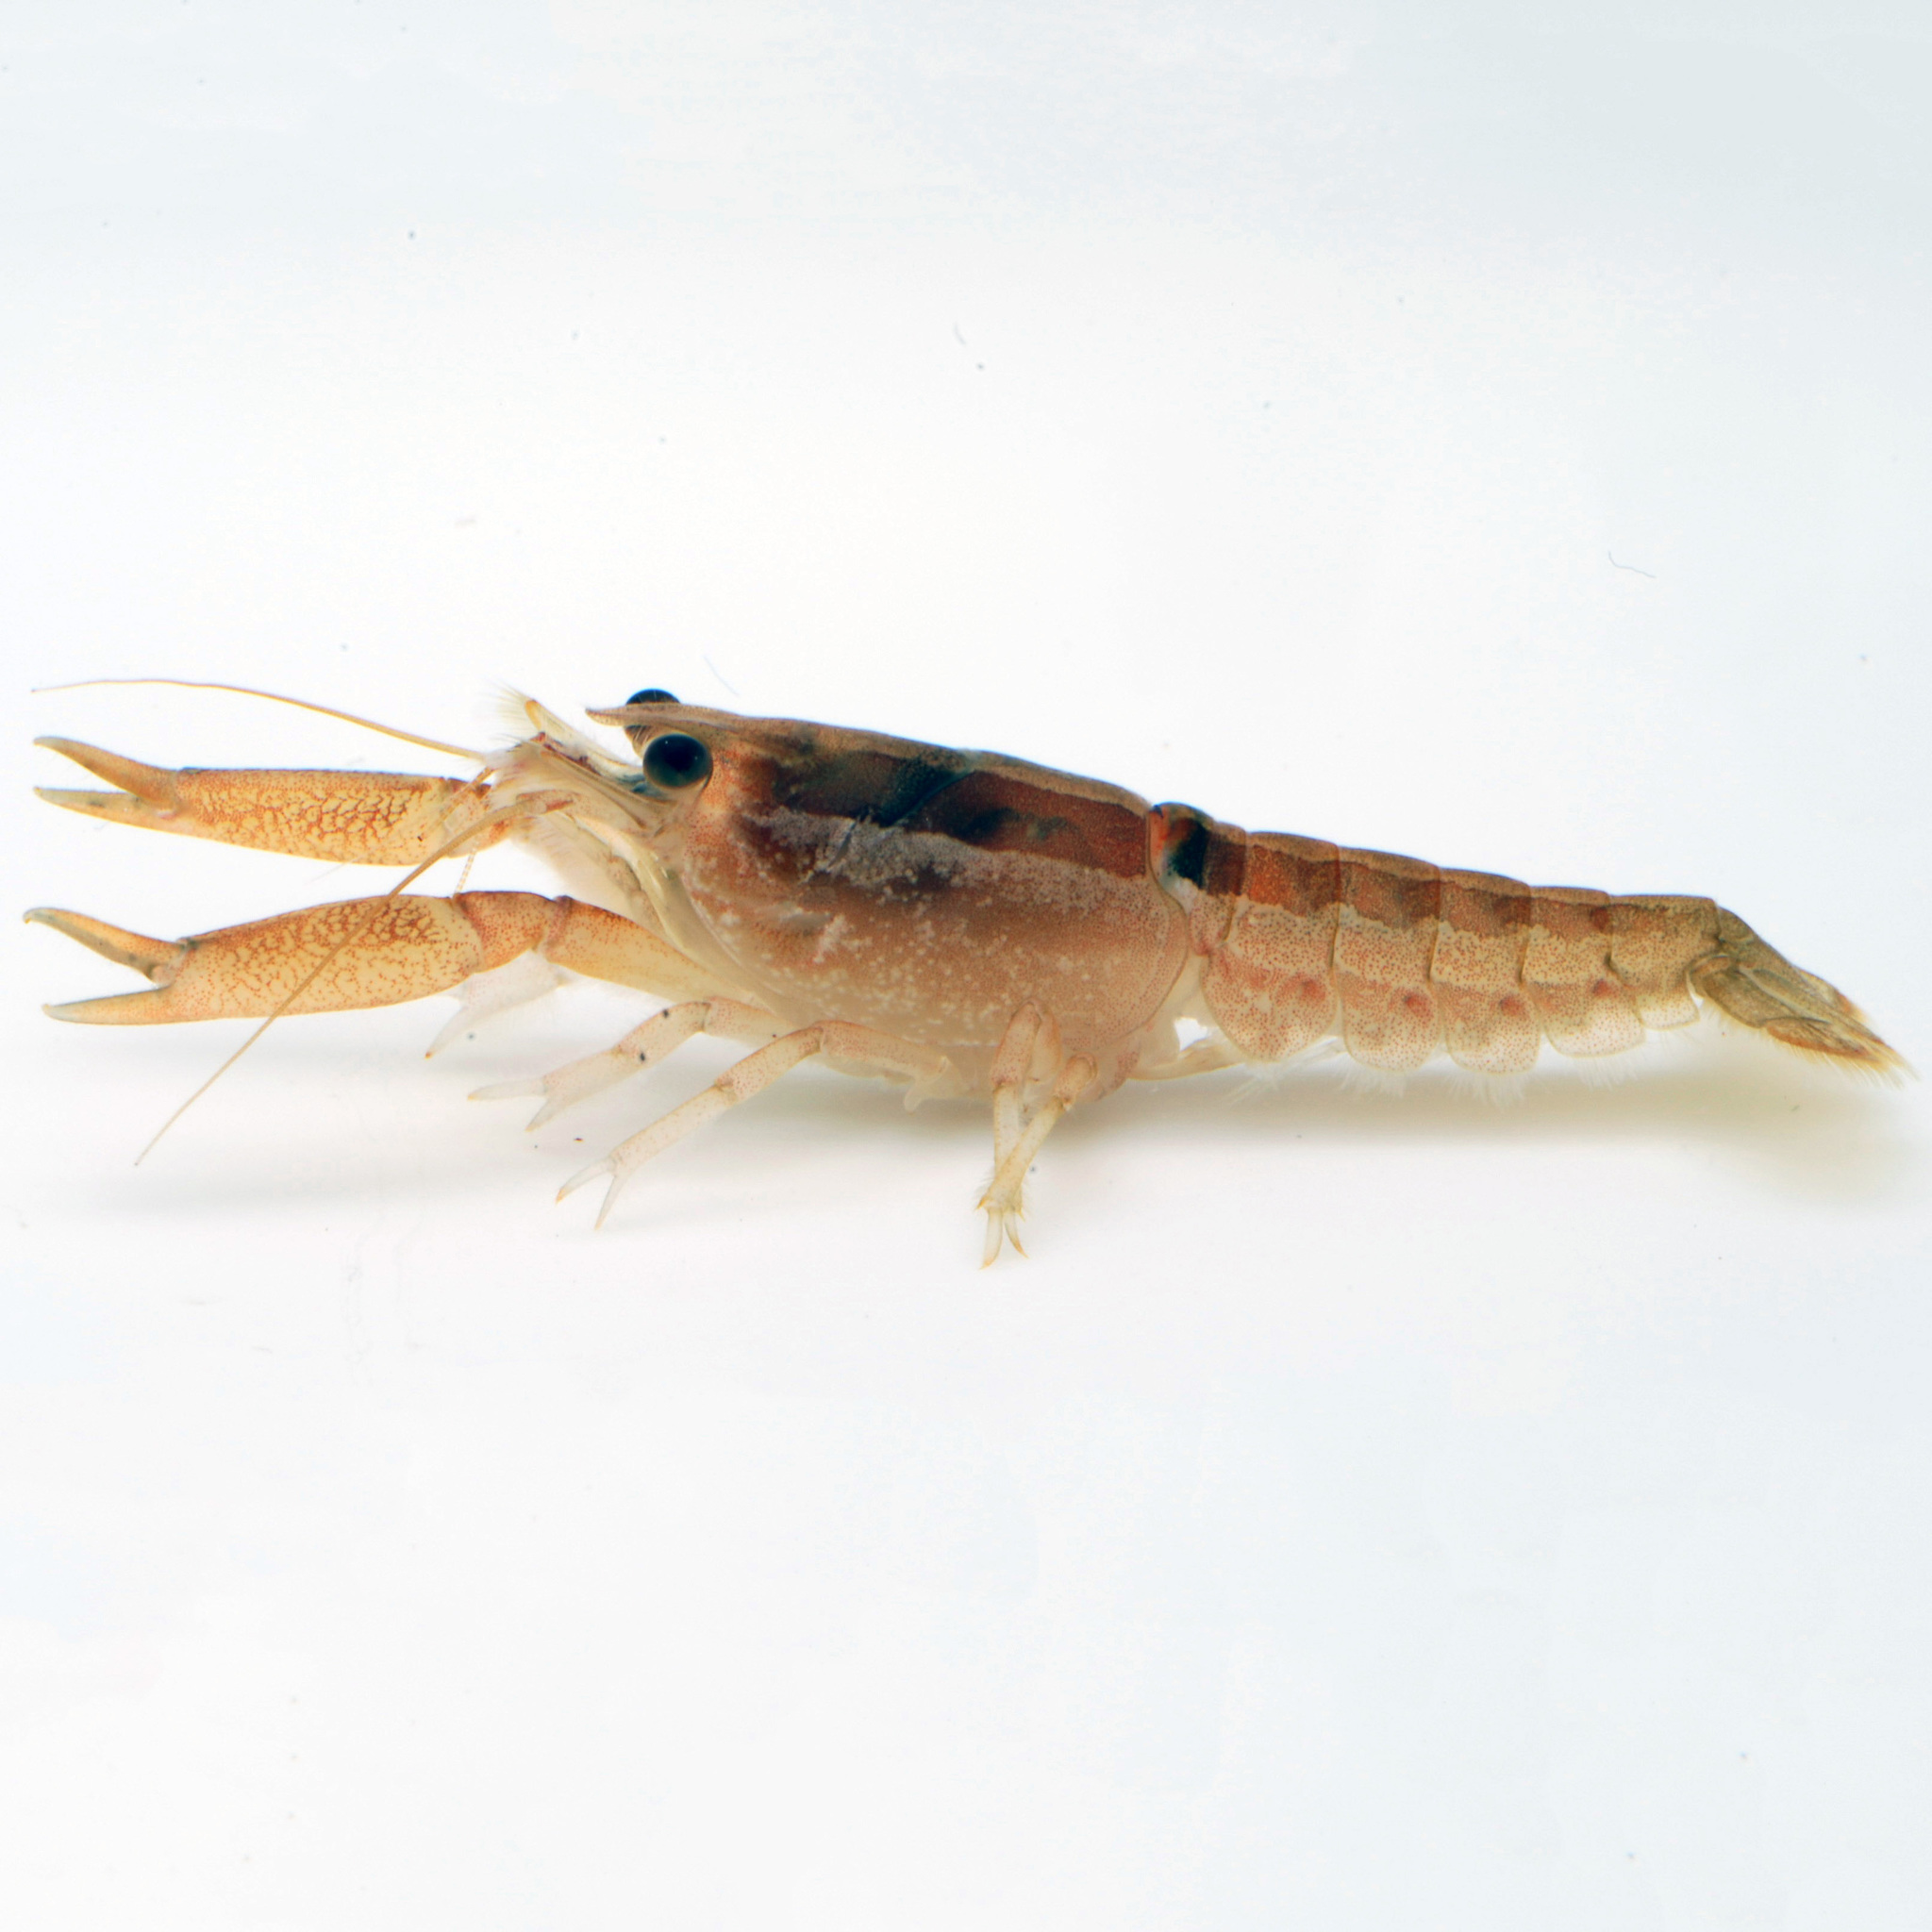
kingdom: Animalia
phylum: Arthropoda
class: Malacostraca
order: Decapoda
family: Cambaridae
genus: Procambarus
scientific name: Procambarus incilis
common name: Cut crayfish
